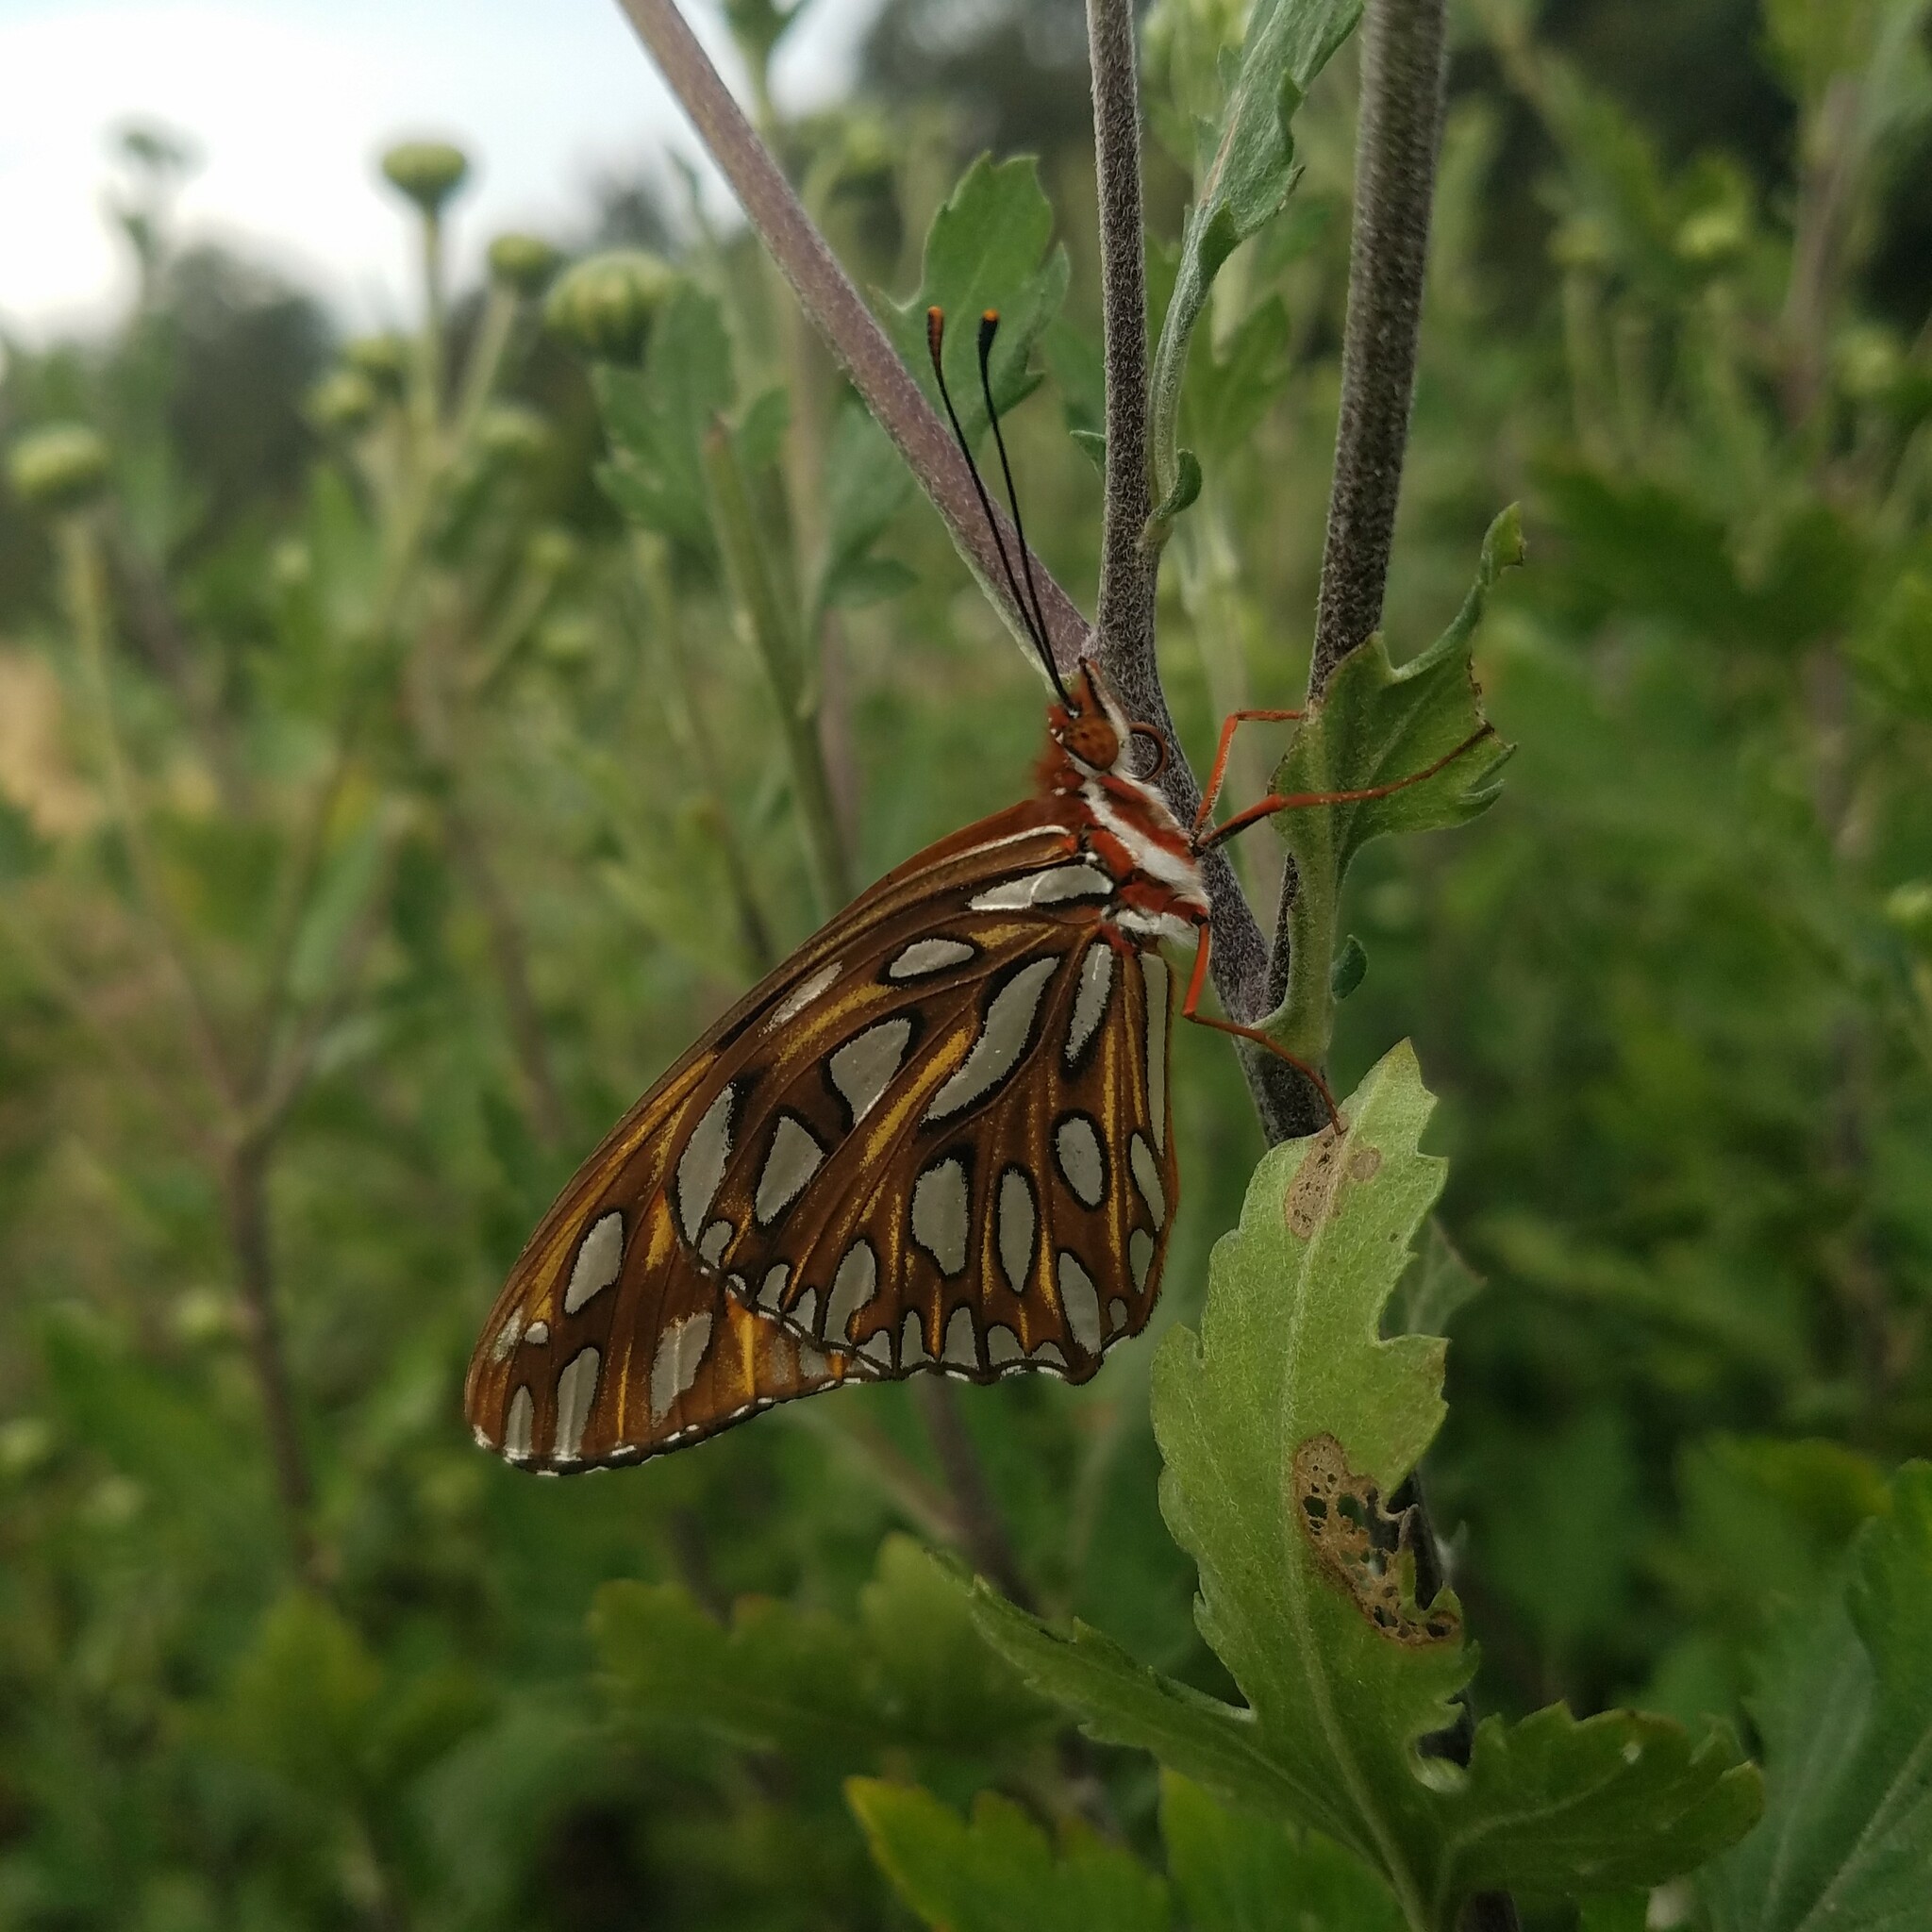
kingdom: Animalia
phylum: Arthropoda
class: Insecta
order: Lepidoptera
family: Nymphalidae
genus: Dione
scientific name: Dione vanillae
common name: Gulf fritillary
